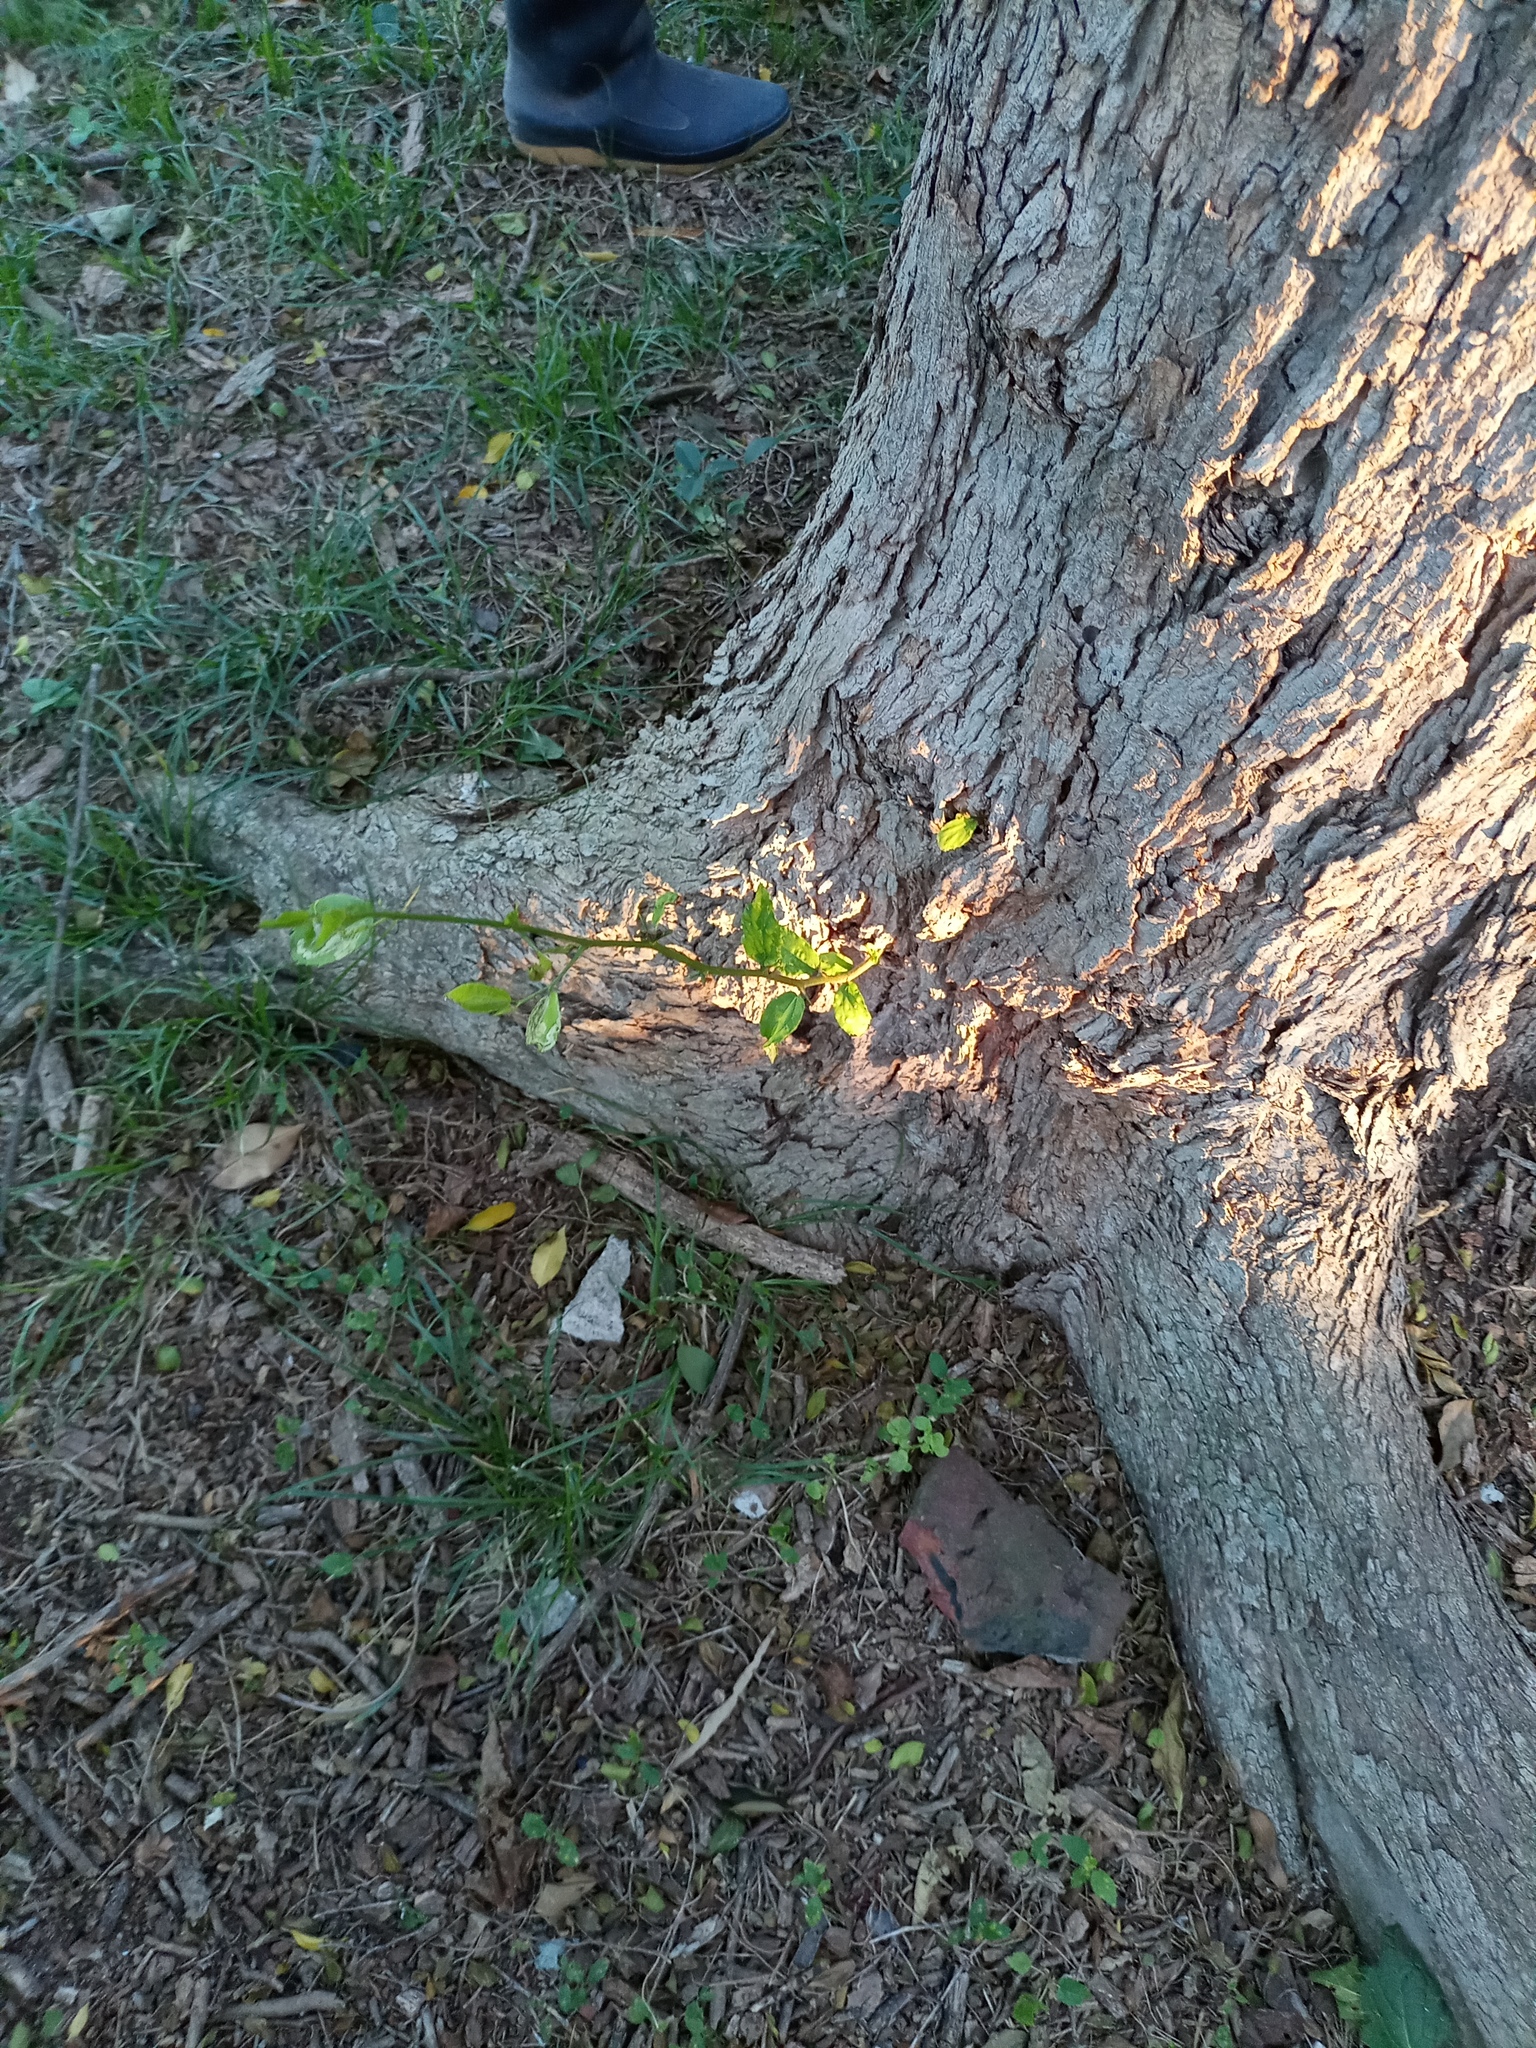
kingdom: Plantae
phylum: Tracheophyta
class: Magnoliopsida
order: Rosales
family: Cannabaceae
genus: Celtis
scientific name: Celtis tala
